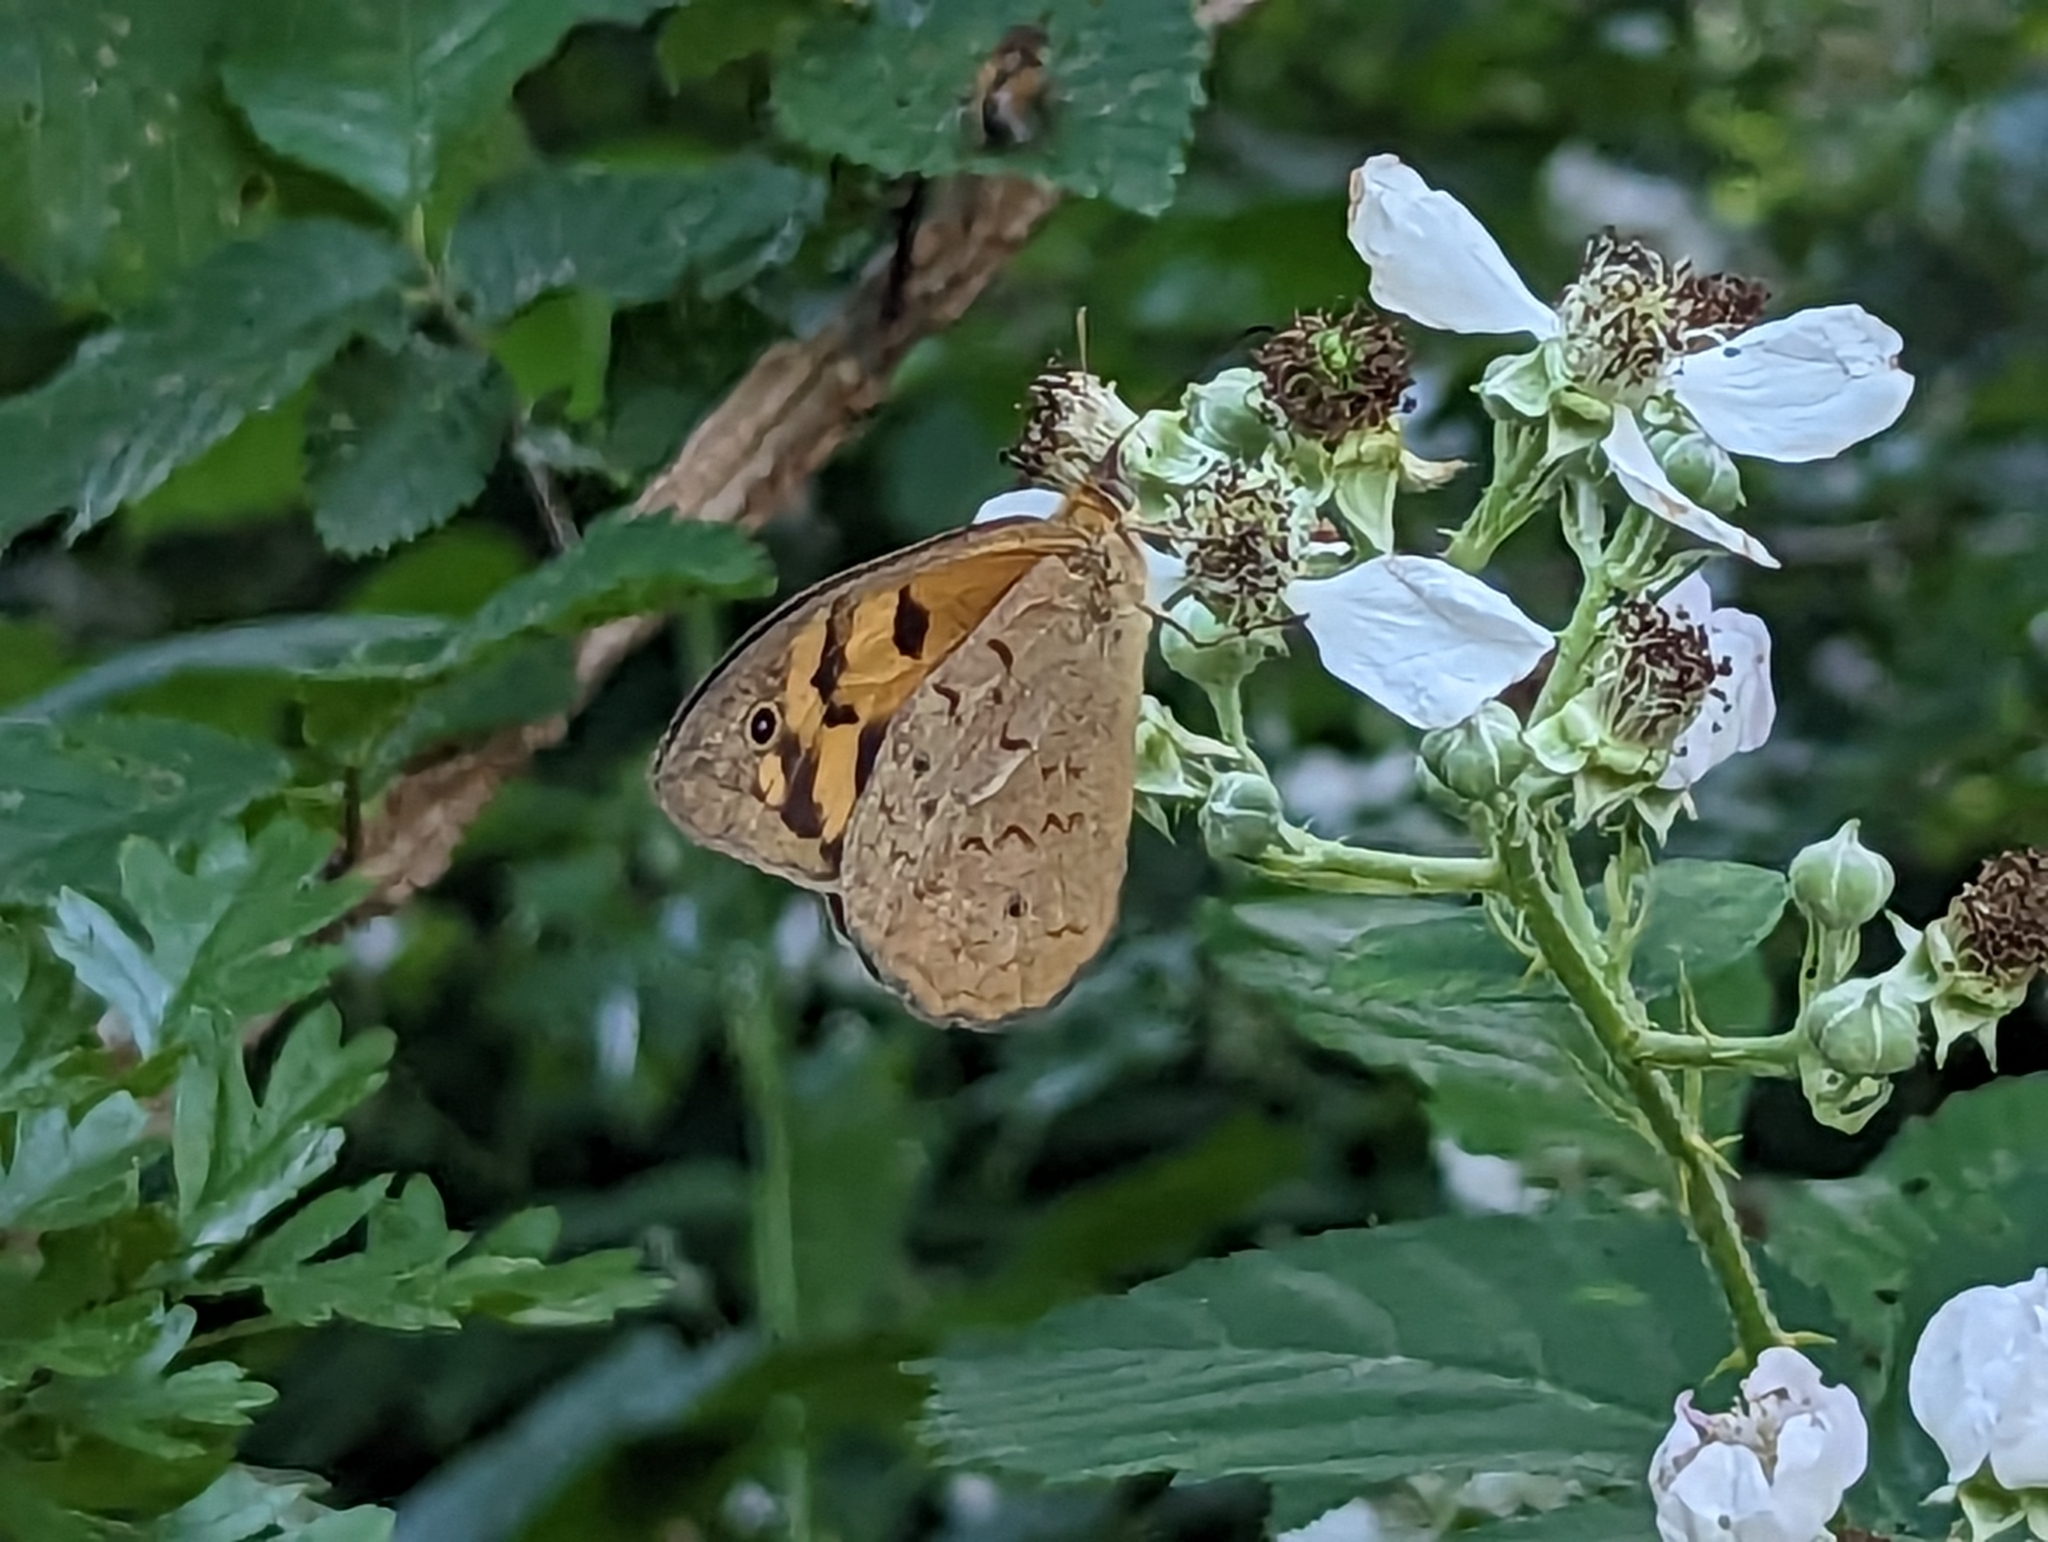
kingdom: Animalia
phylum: Arthropoda
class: Insecta
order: Lepidoptera
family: Nymphalidae
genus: Heteronympha
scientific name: Heteronympha merope
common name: Common brown
